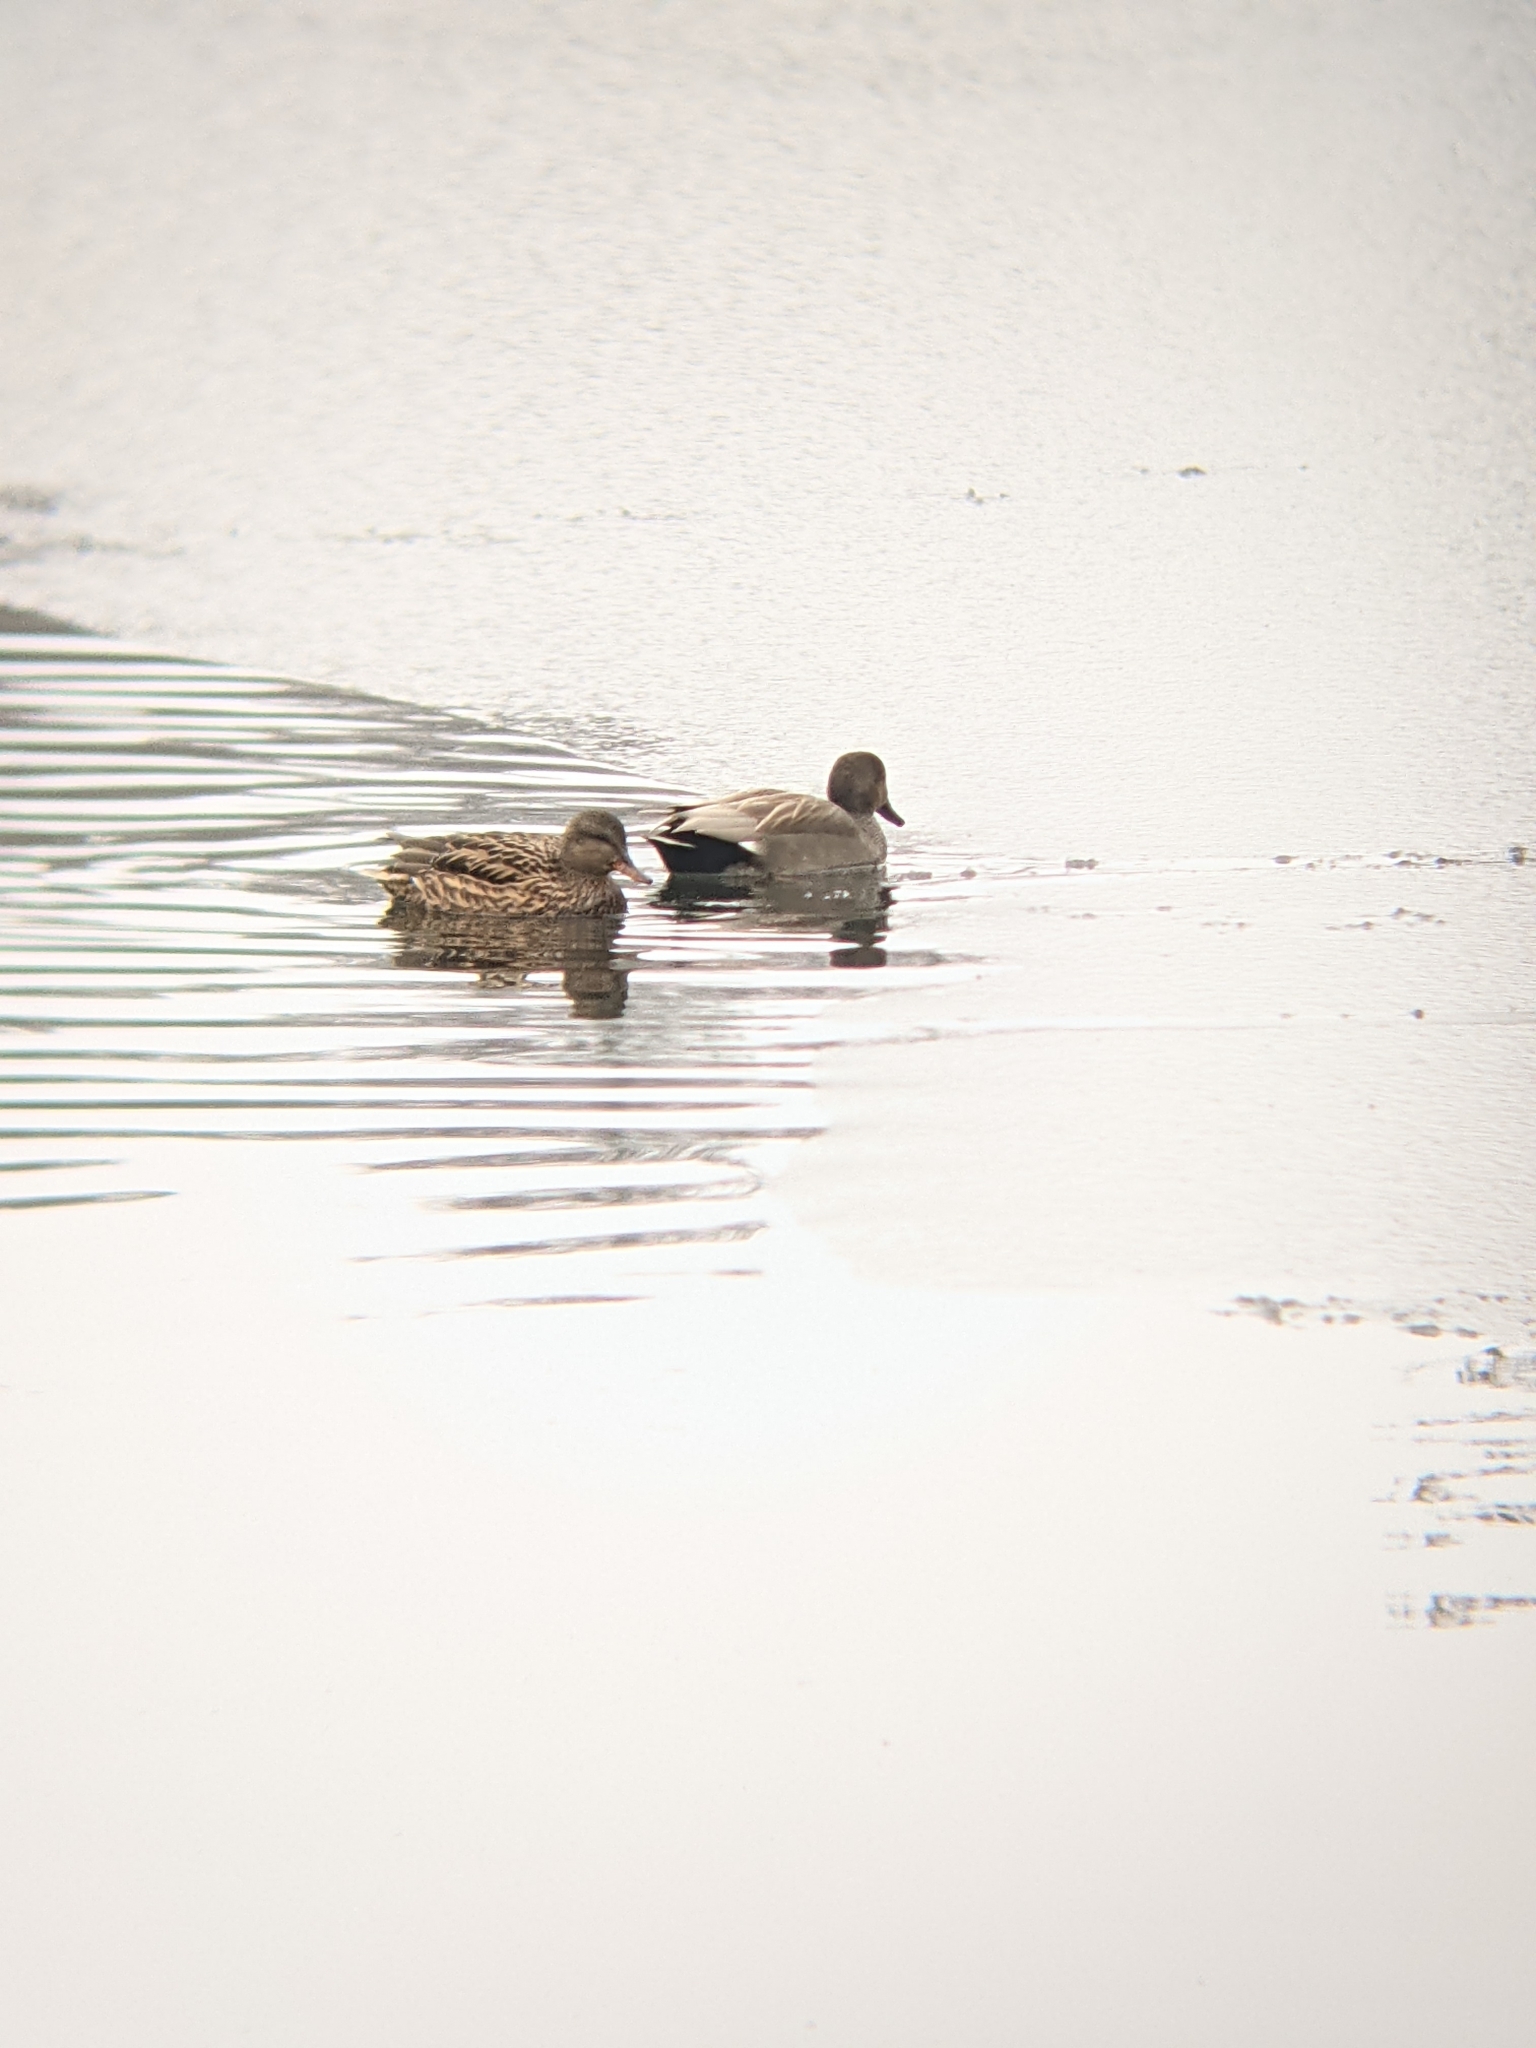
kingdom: Animalia
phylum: Chordata
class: Aves
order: Anseriformes
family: Anatidae
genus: Mareca
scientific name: Mareca strepera
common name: Gadwall
